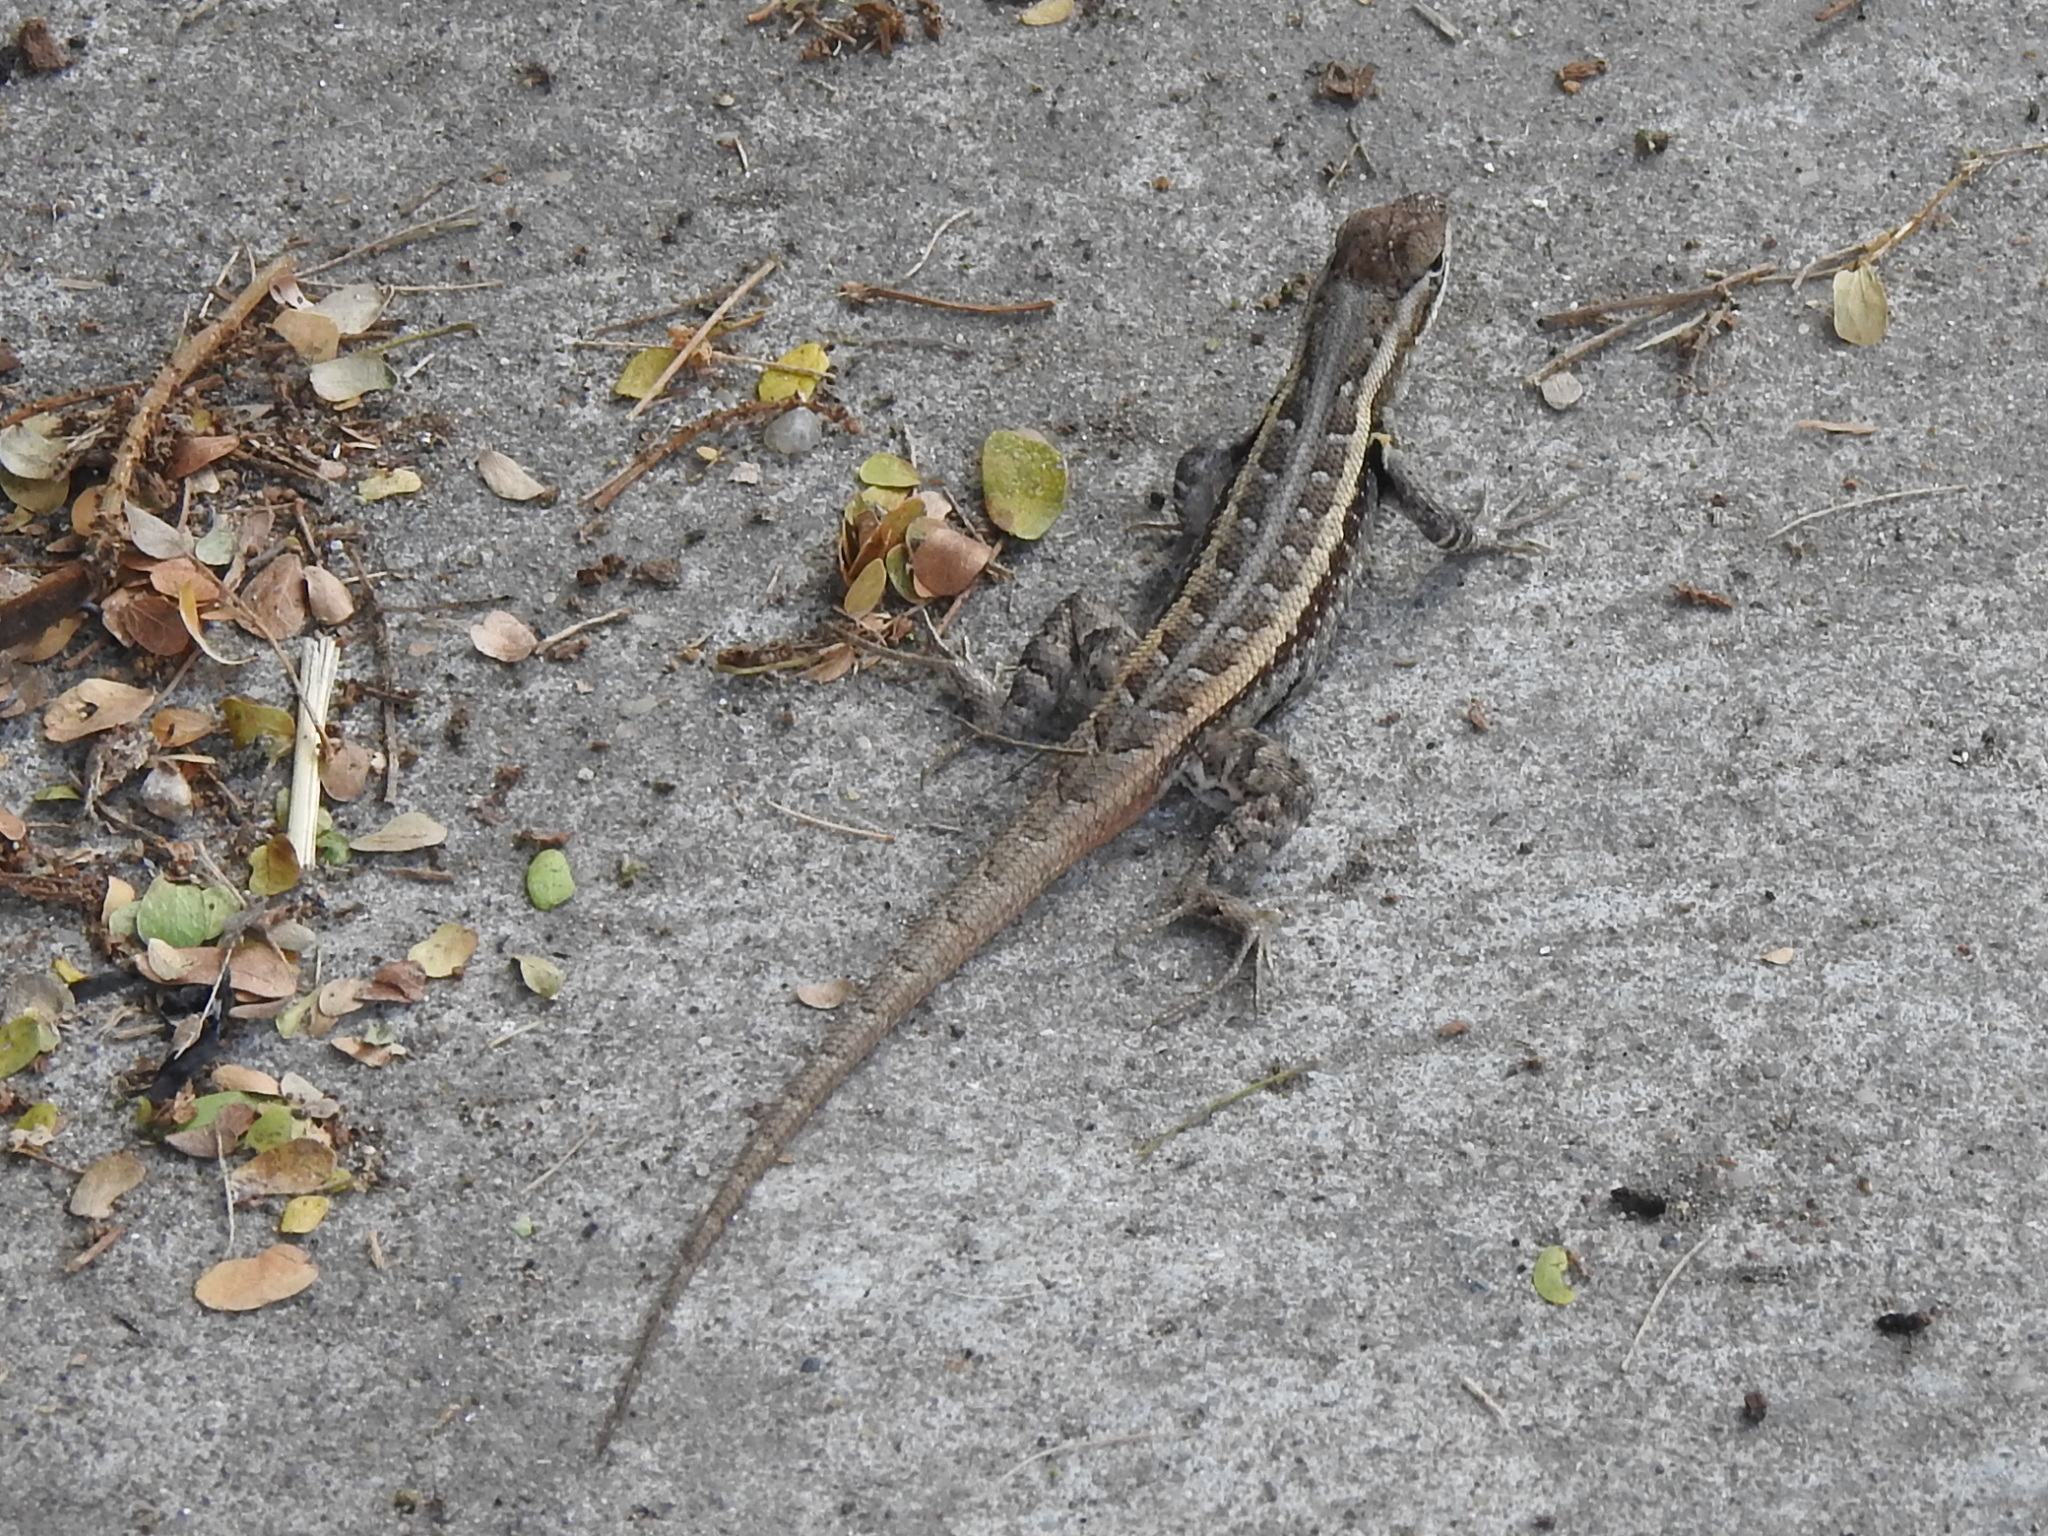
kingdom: Animalia
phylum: Chordata
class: Squamata
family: Phrynosomatidae
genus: Sceloporus
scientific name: Sceloporus variabilis
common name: Rosebelly lizard
